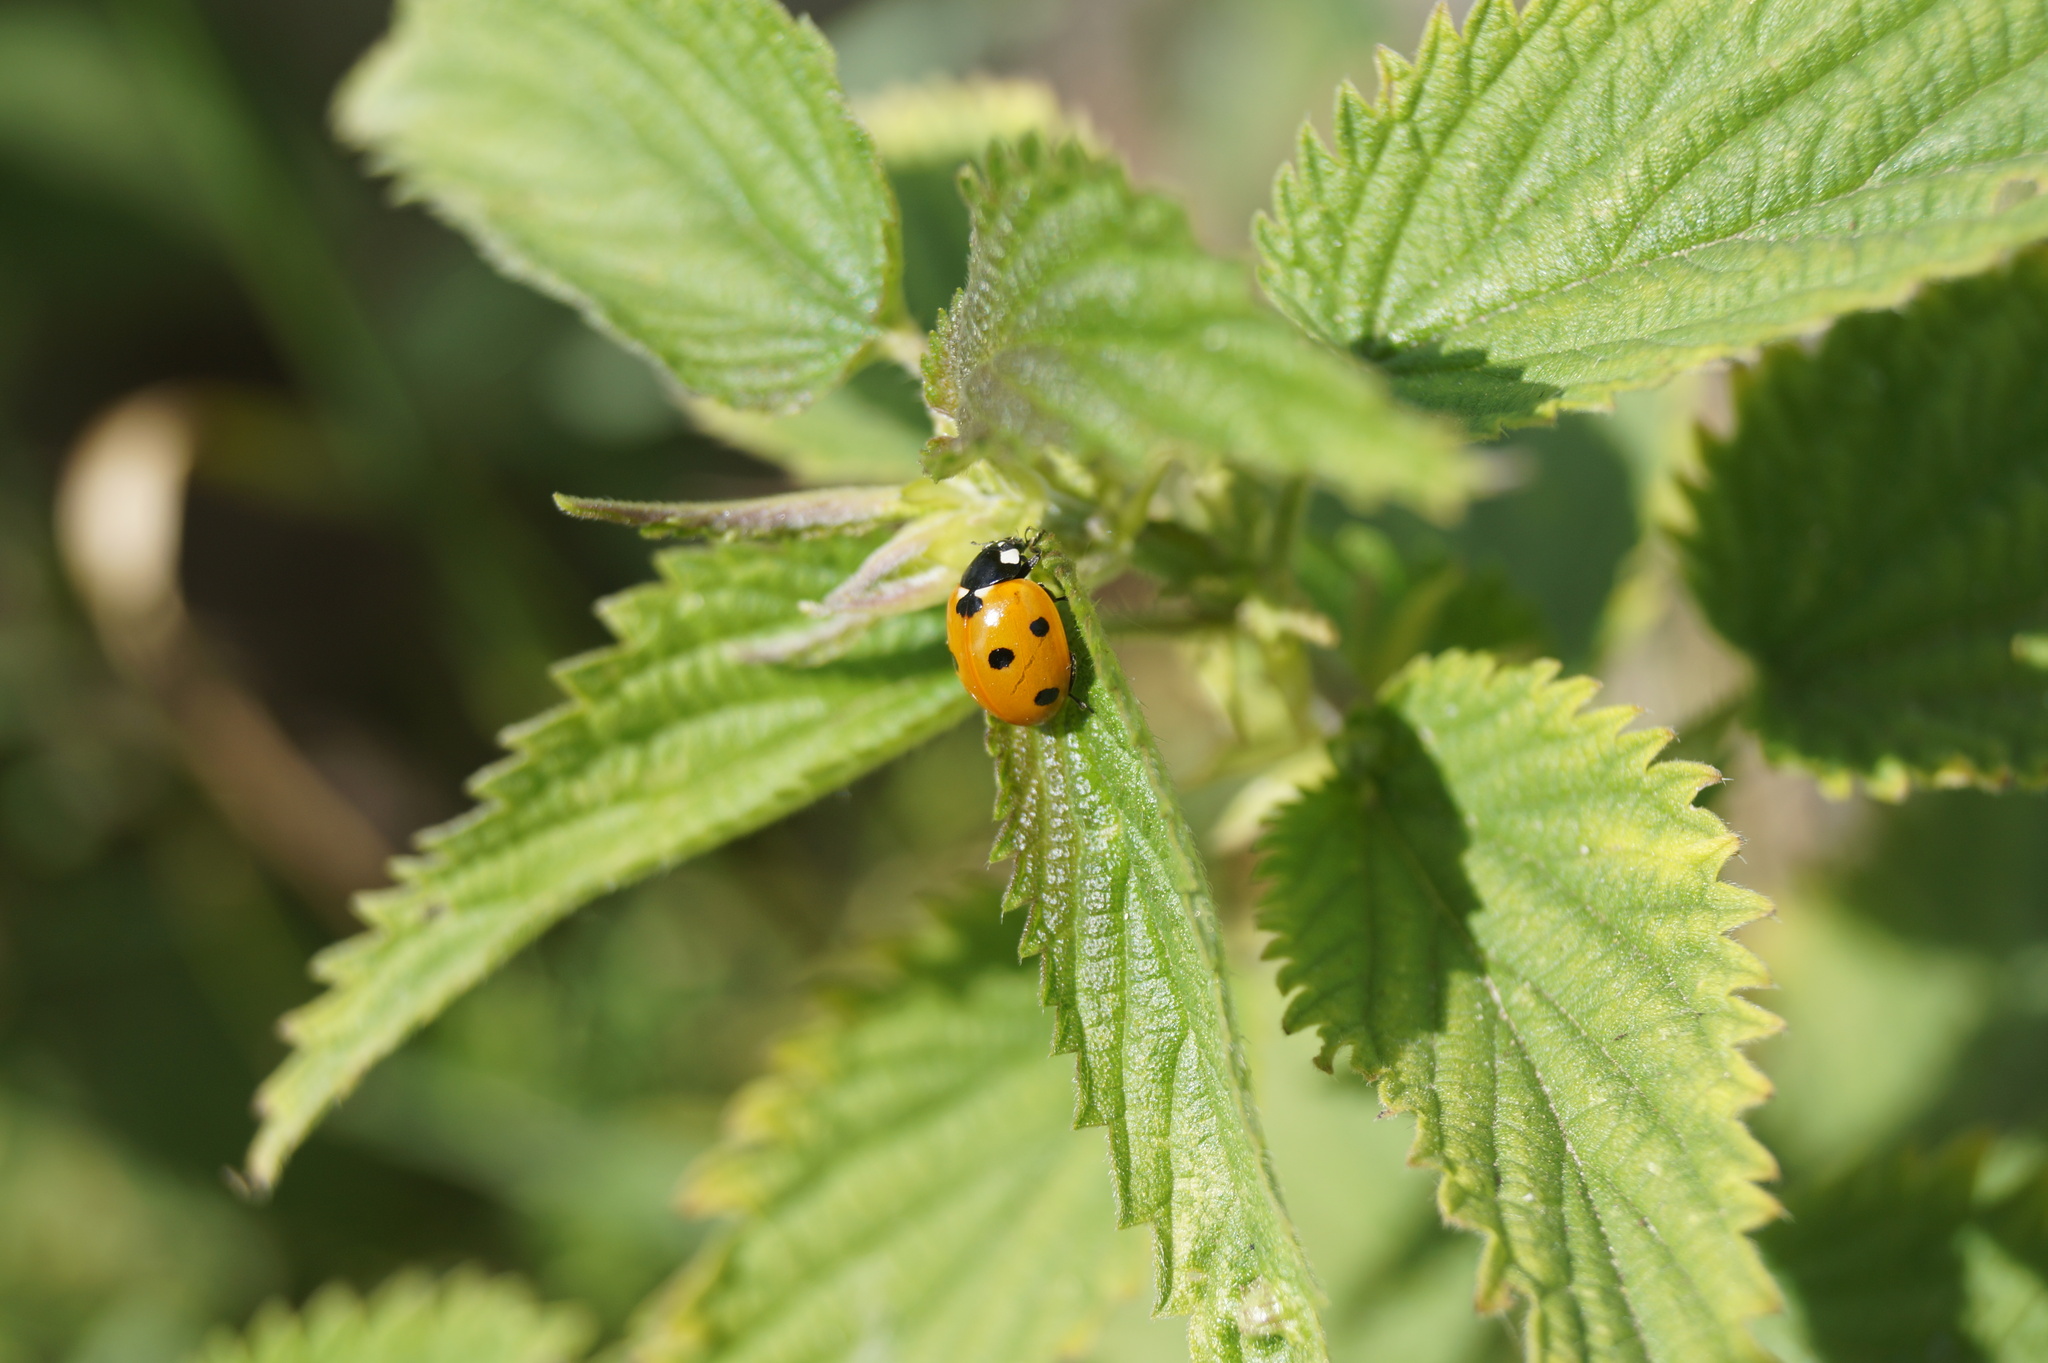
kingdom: Animalia
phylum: Arthropoda
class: Insecta
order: Coleoptera
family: Coccinellidae
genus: Coccinella
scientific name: Coccinella septempunctata
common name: Sevenspotted lady beetle
